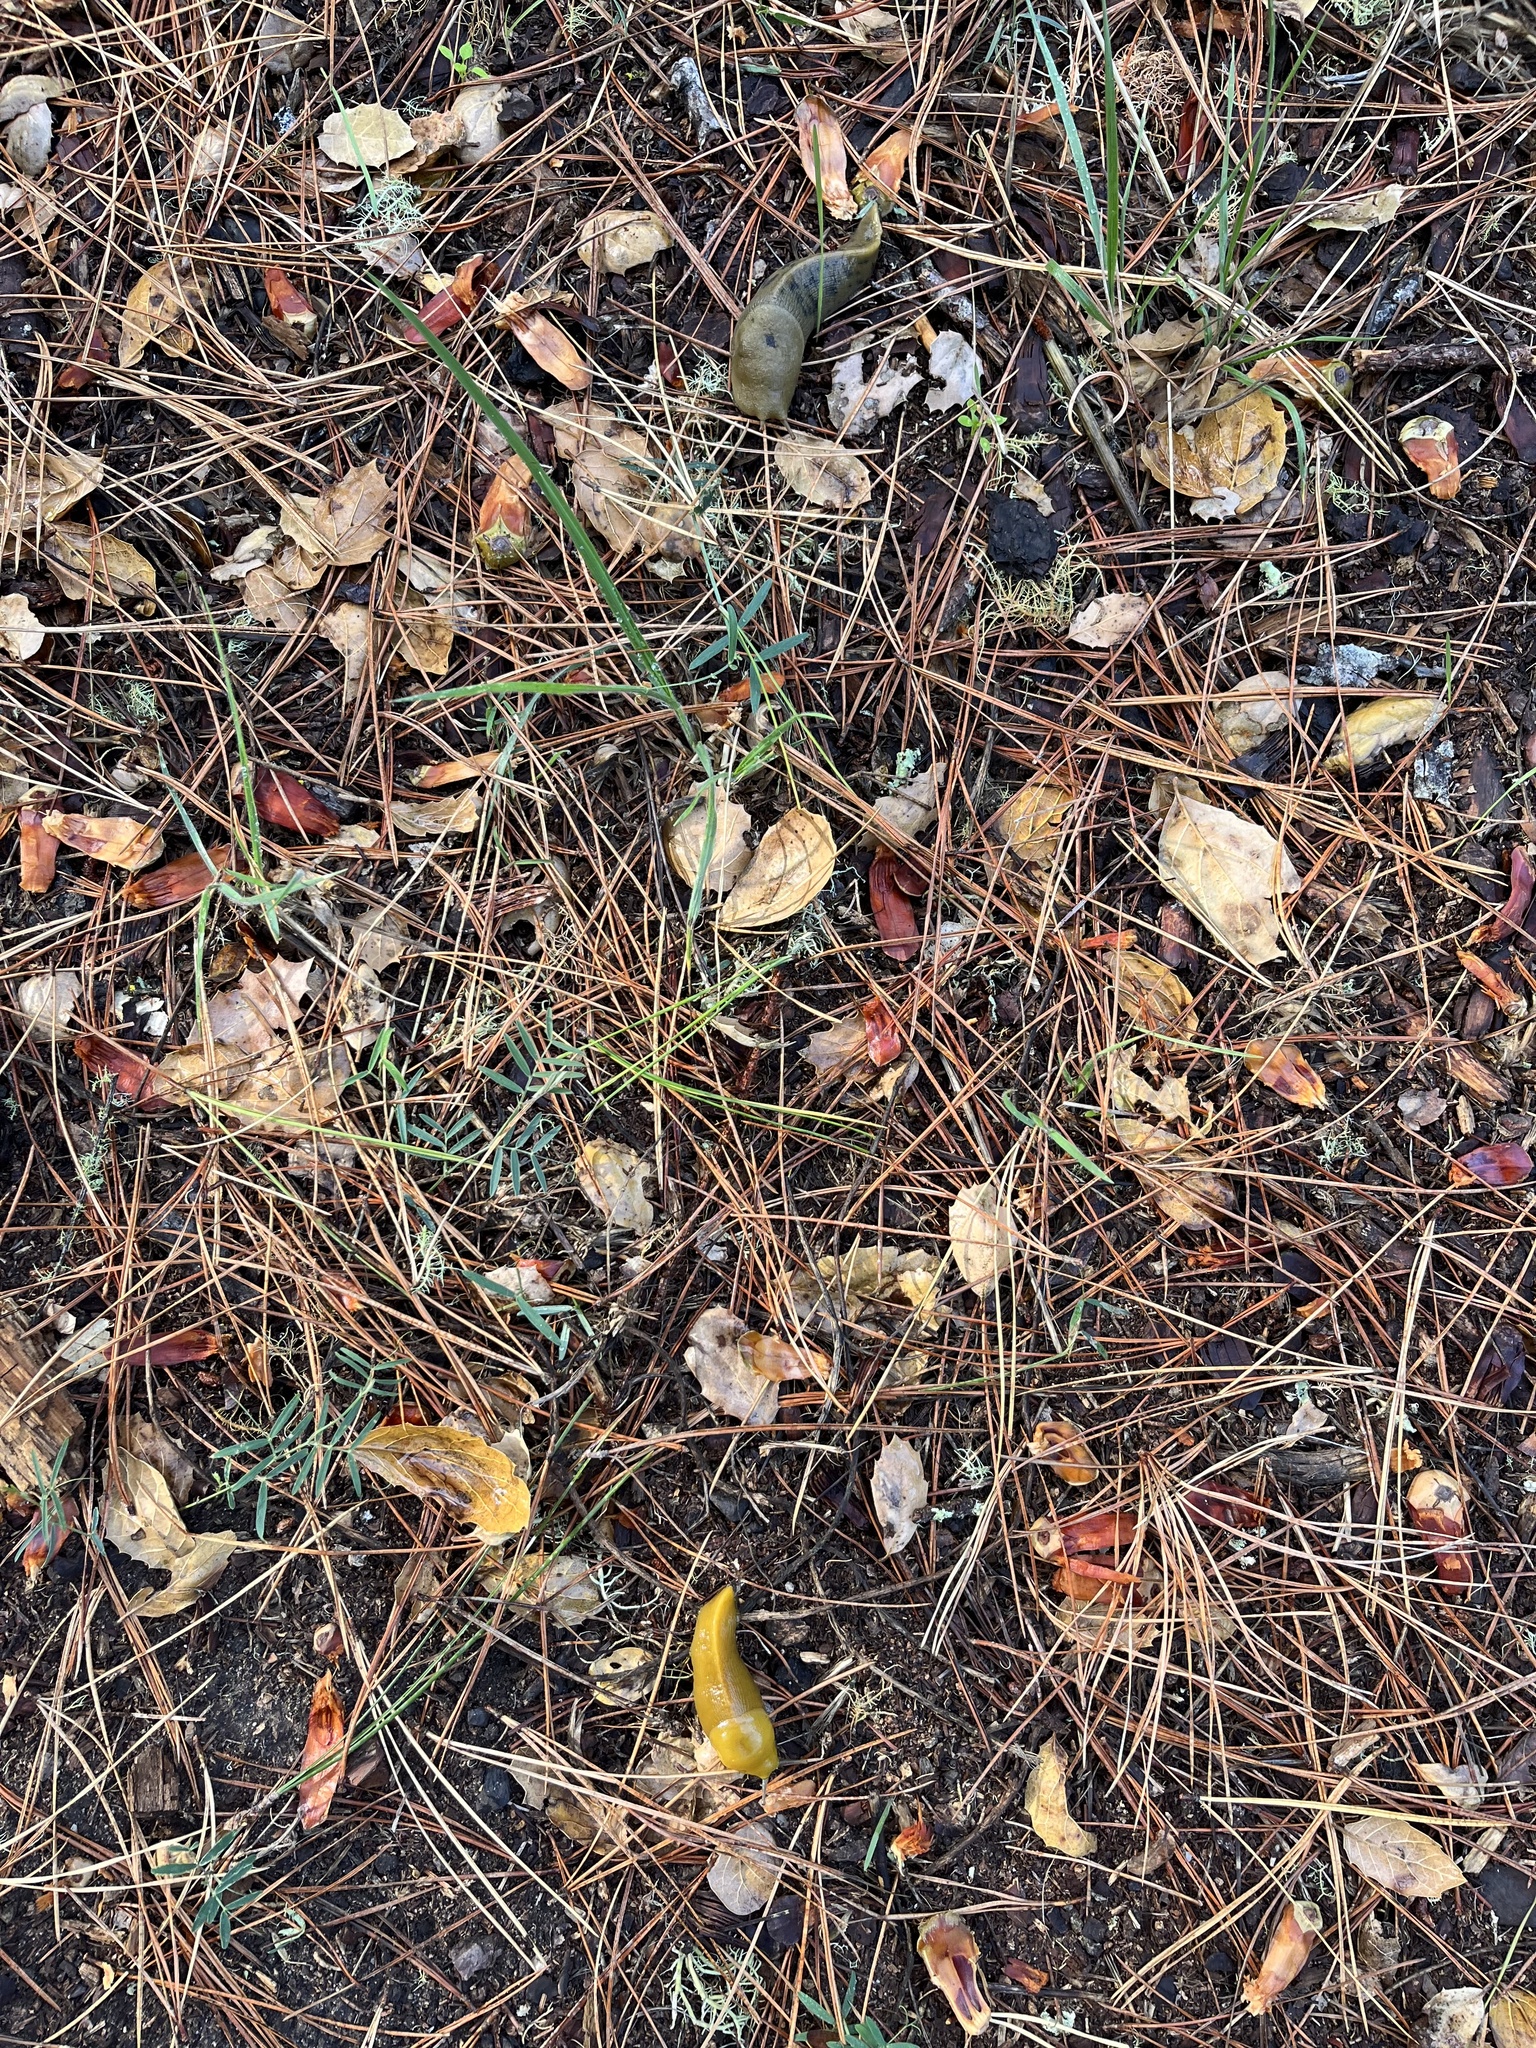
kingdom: Animalia
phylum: Mollusca
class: Gastropoda
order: Stylommatophora
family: Ariolimacidae
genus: Ariolimax
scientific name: Ariolimax buttoni
